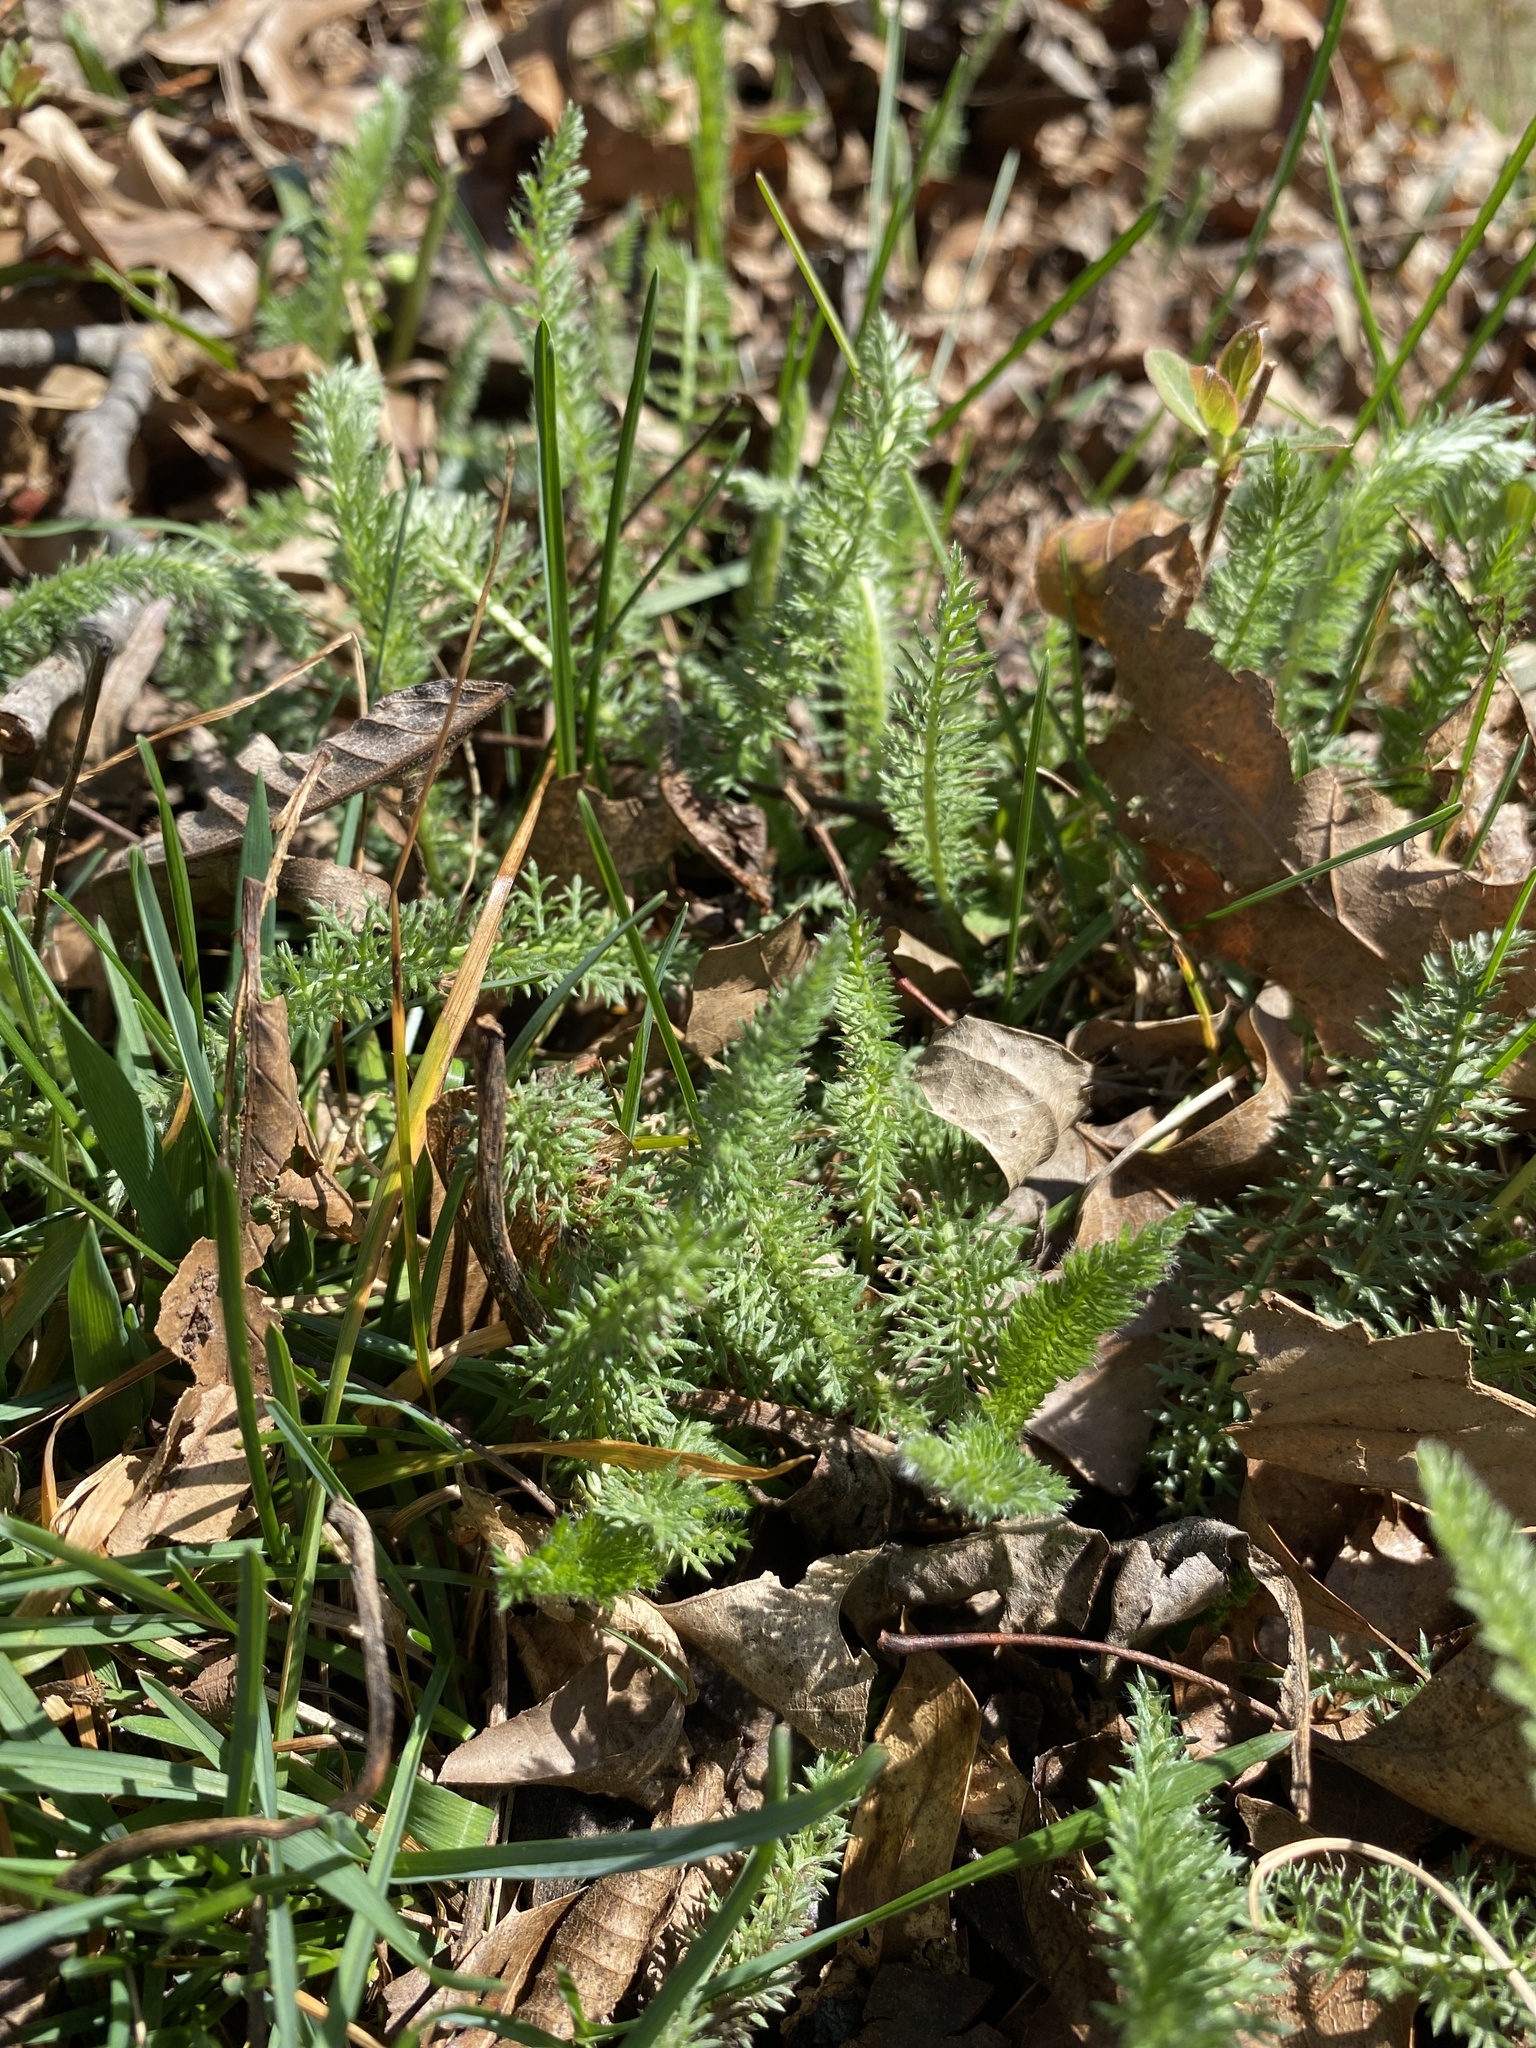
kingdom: Plantae
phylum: Tracheophyta
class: Magnoliopsida
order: Asterales
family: Asteraceae
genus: Achillea
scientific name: Achillea millefolium
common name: Yarrow
